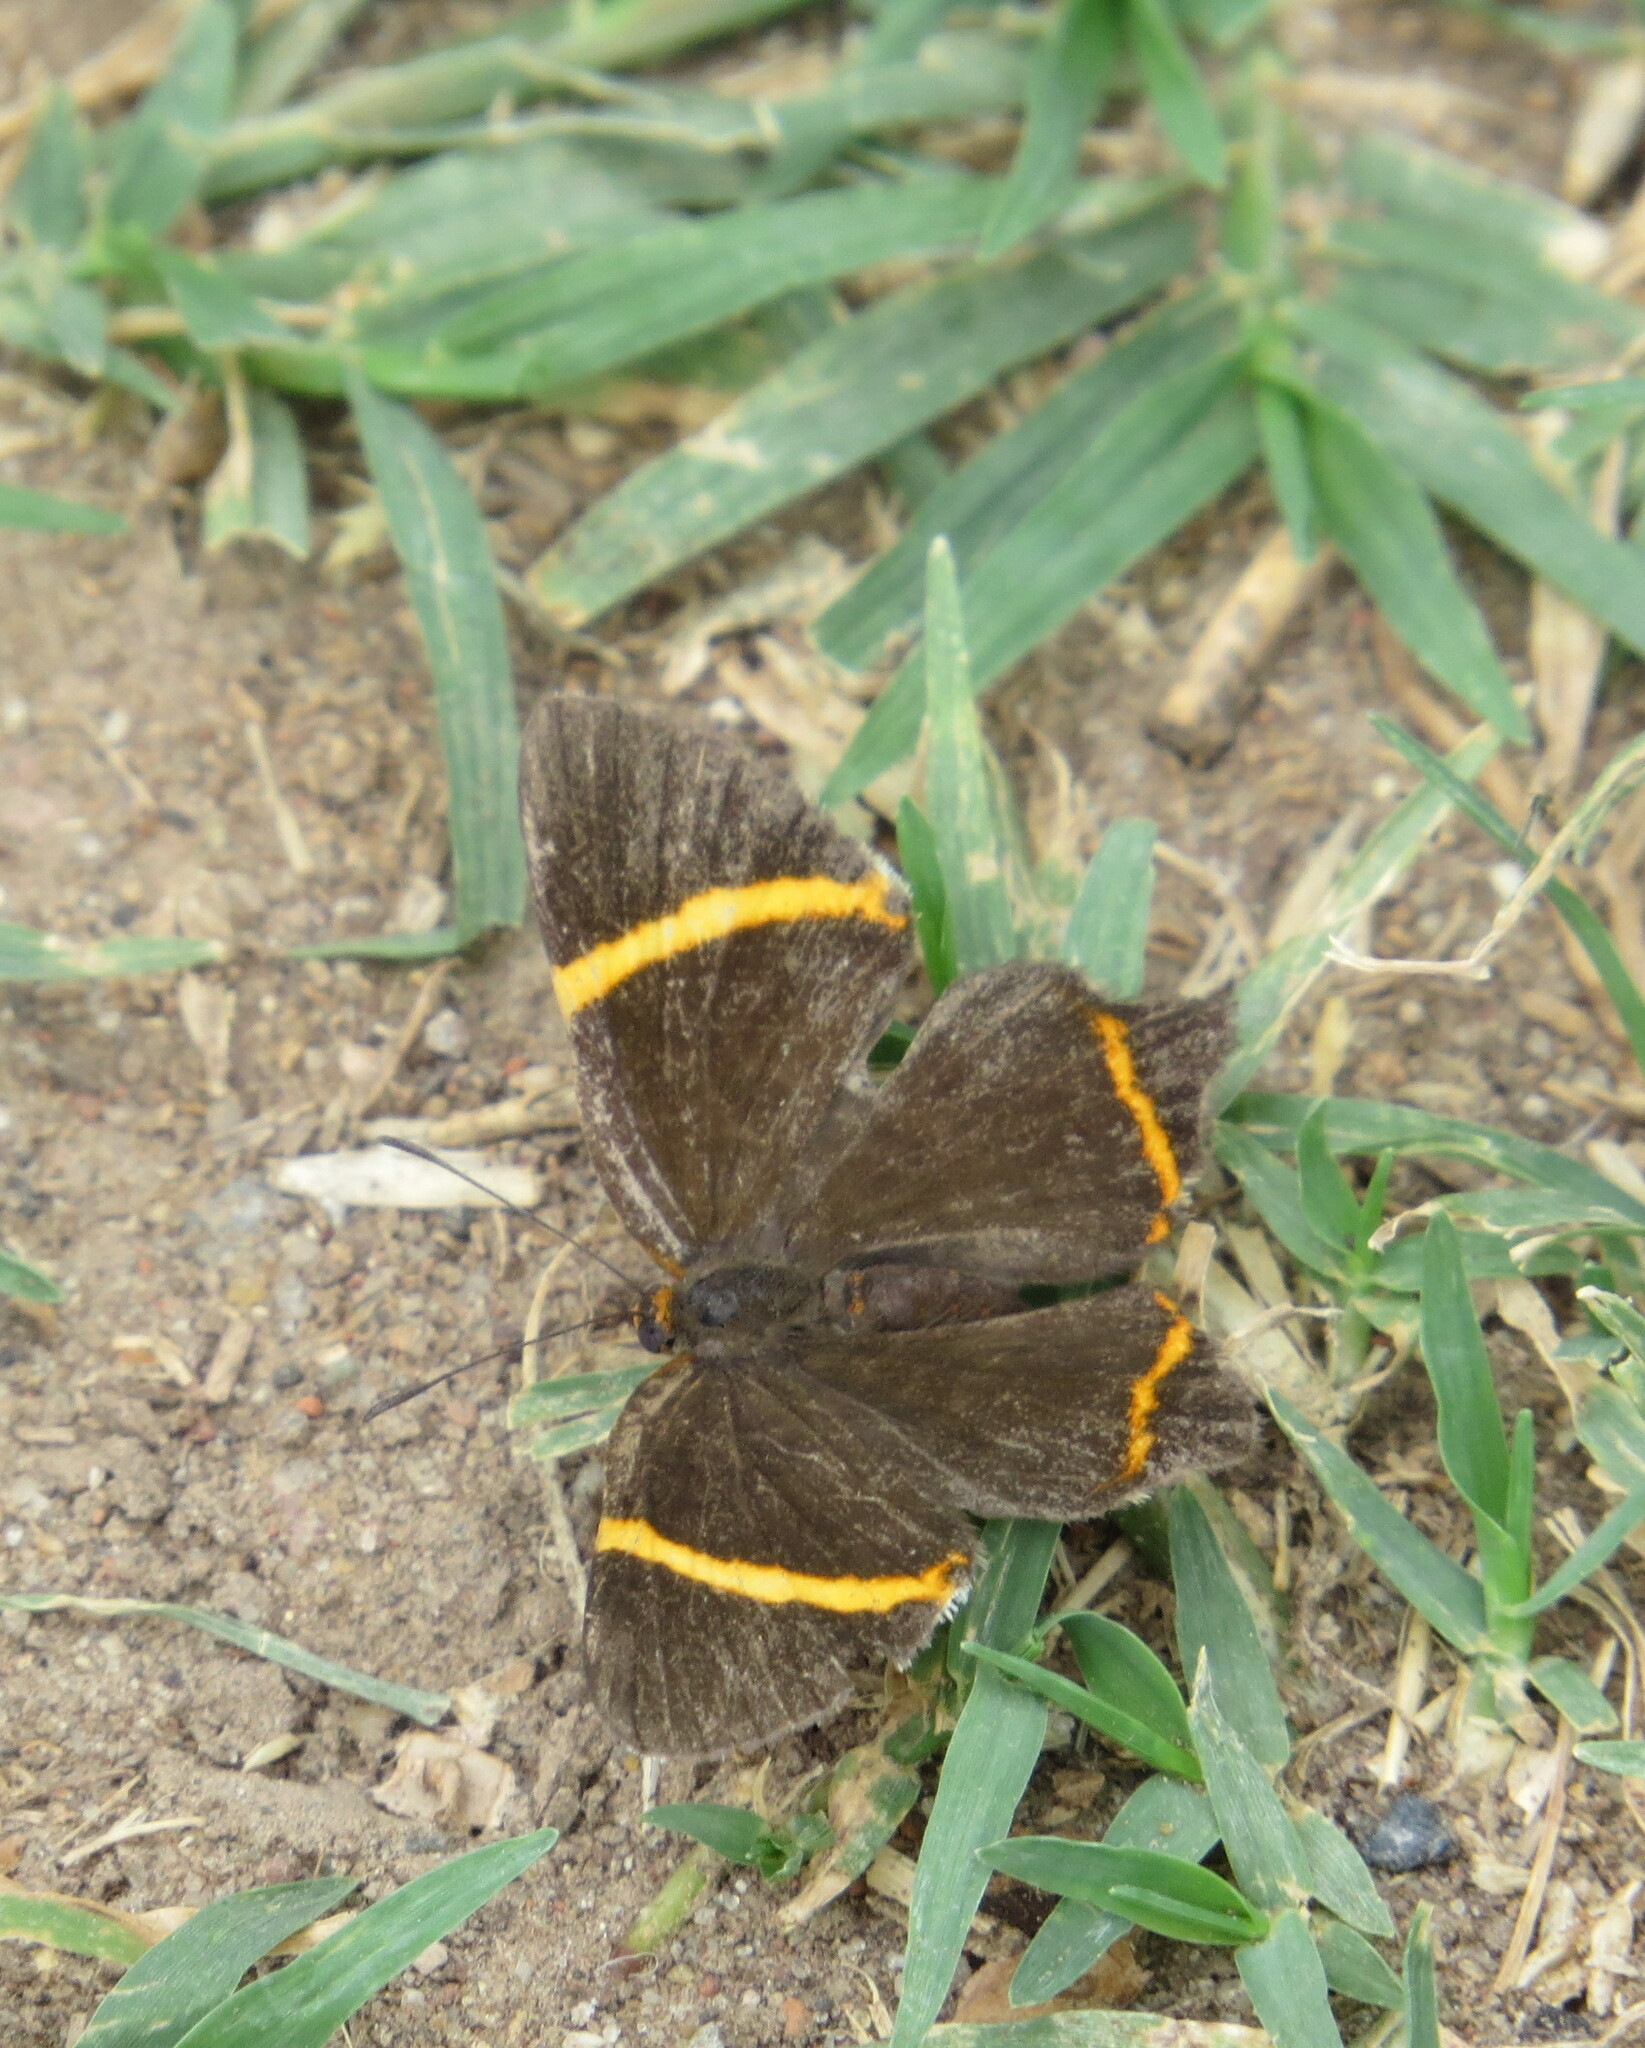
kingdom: Animalia
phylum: Arthropoda
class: Insecta
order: Lepidoptera
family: Riodinidae
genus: Riodina
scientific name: Riodina lysippoides
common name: Little dancer metalmark
